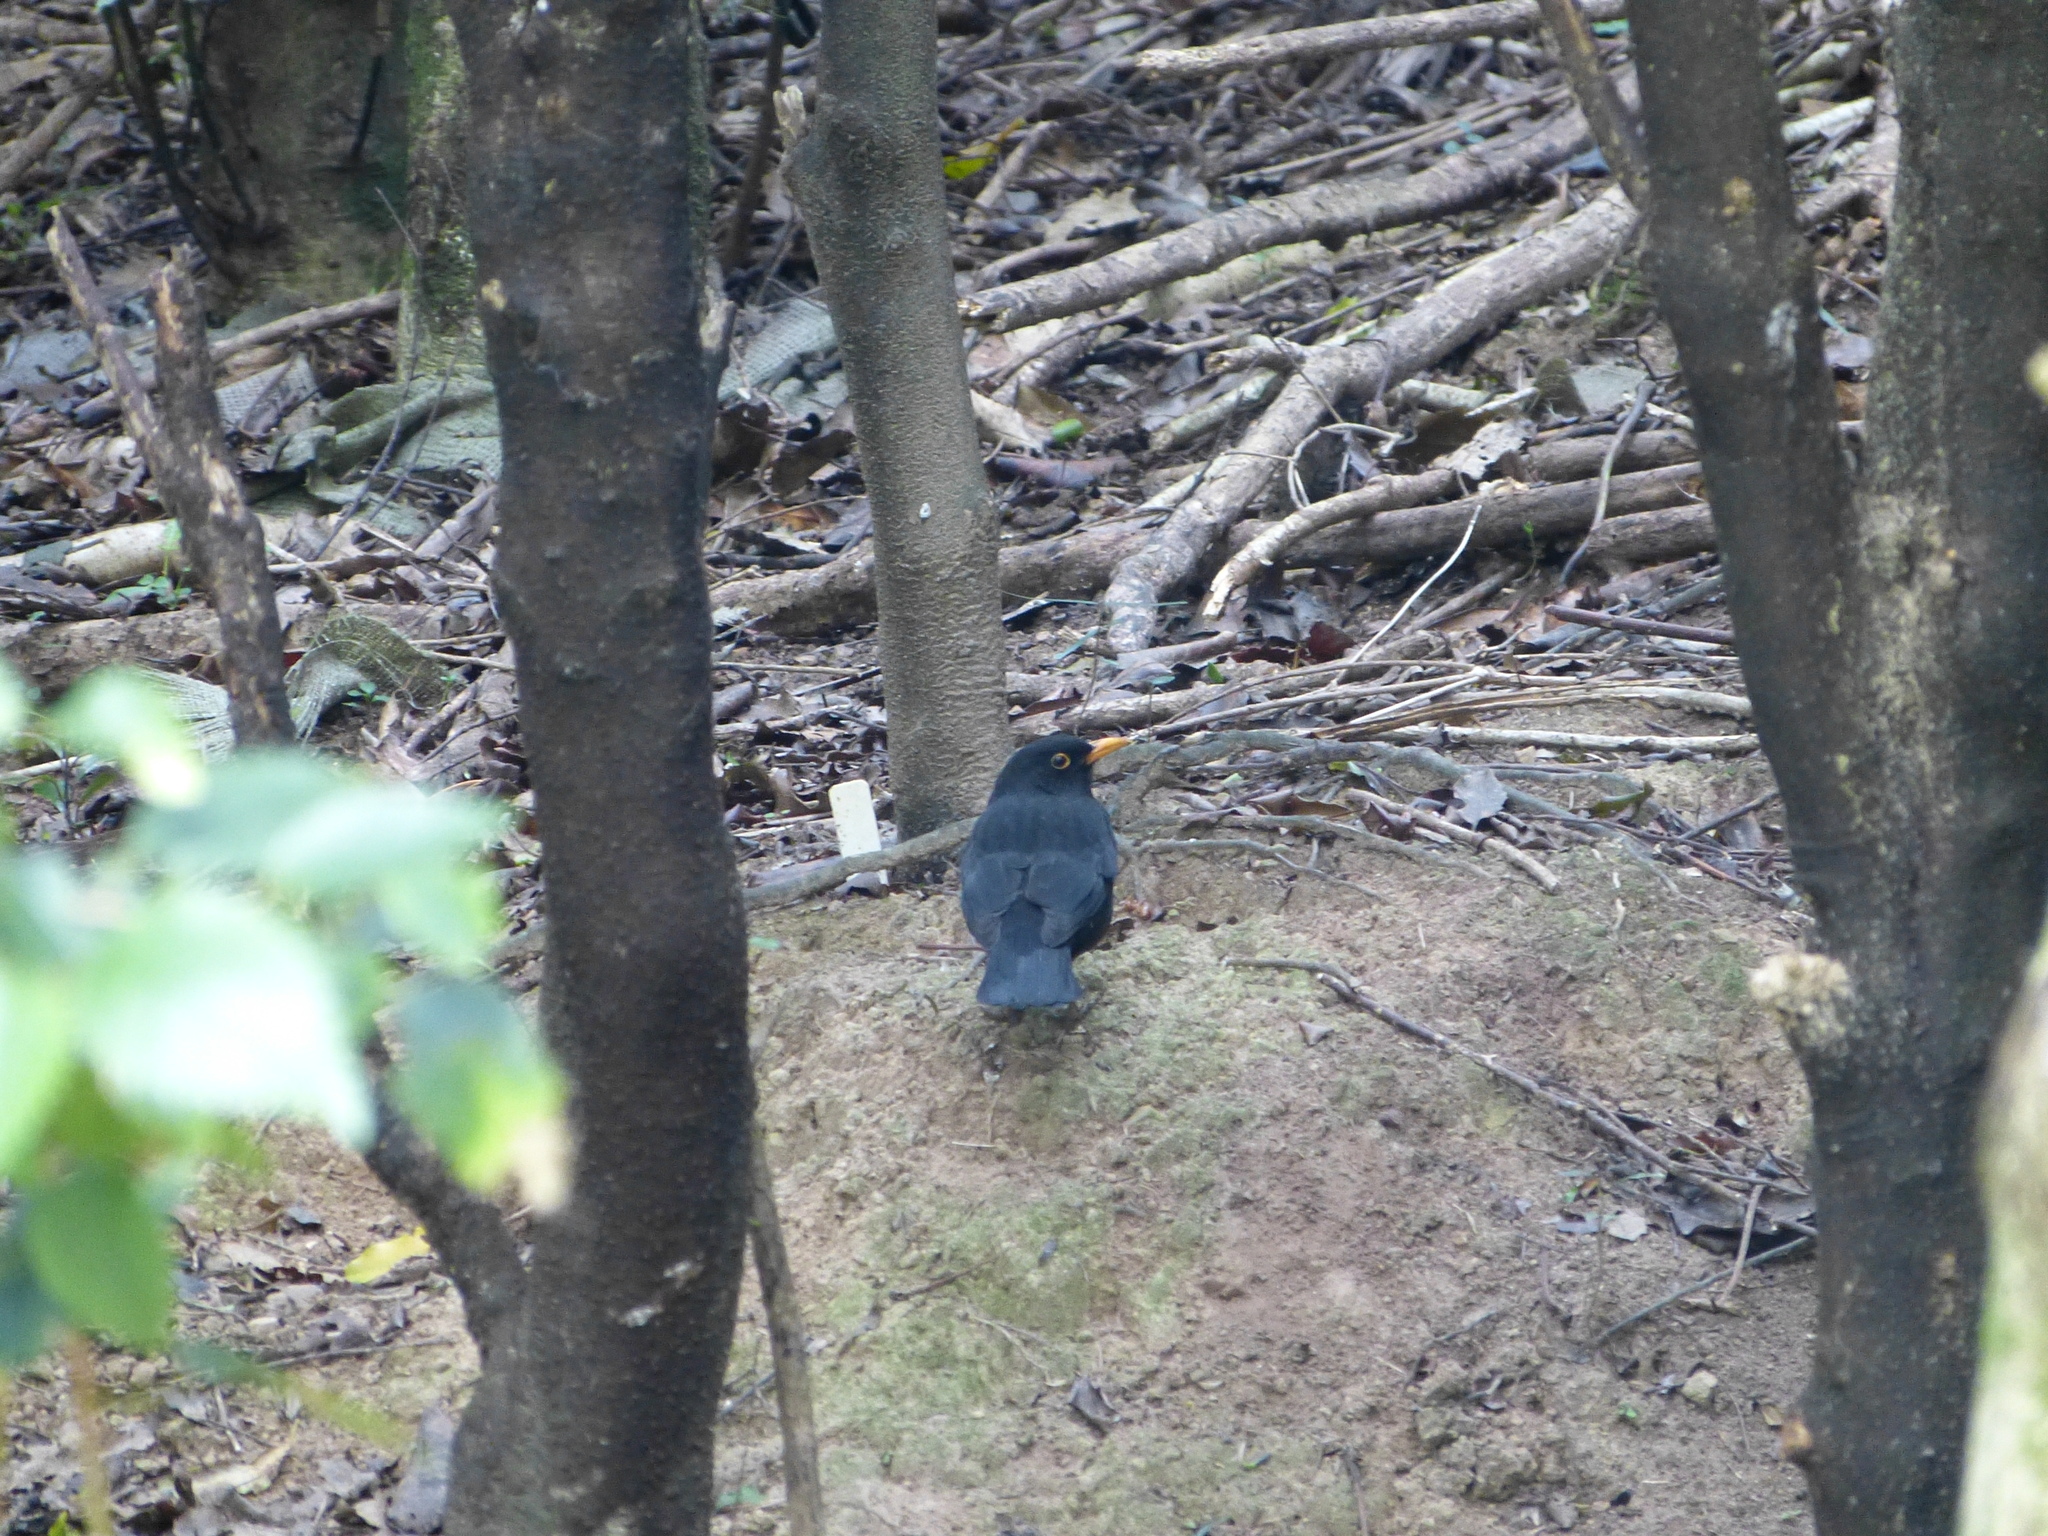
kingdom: Animalia
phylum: Chordata
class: Aves
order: Passeriformes
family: Turdidae
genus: Turdus
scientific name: Turdus merula
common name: Common blackbird
